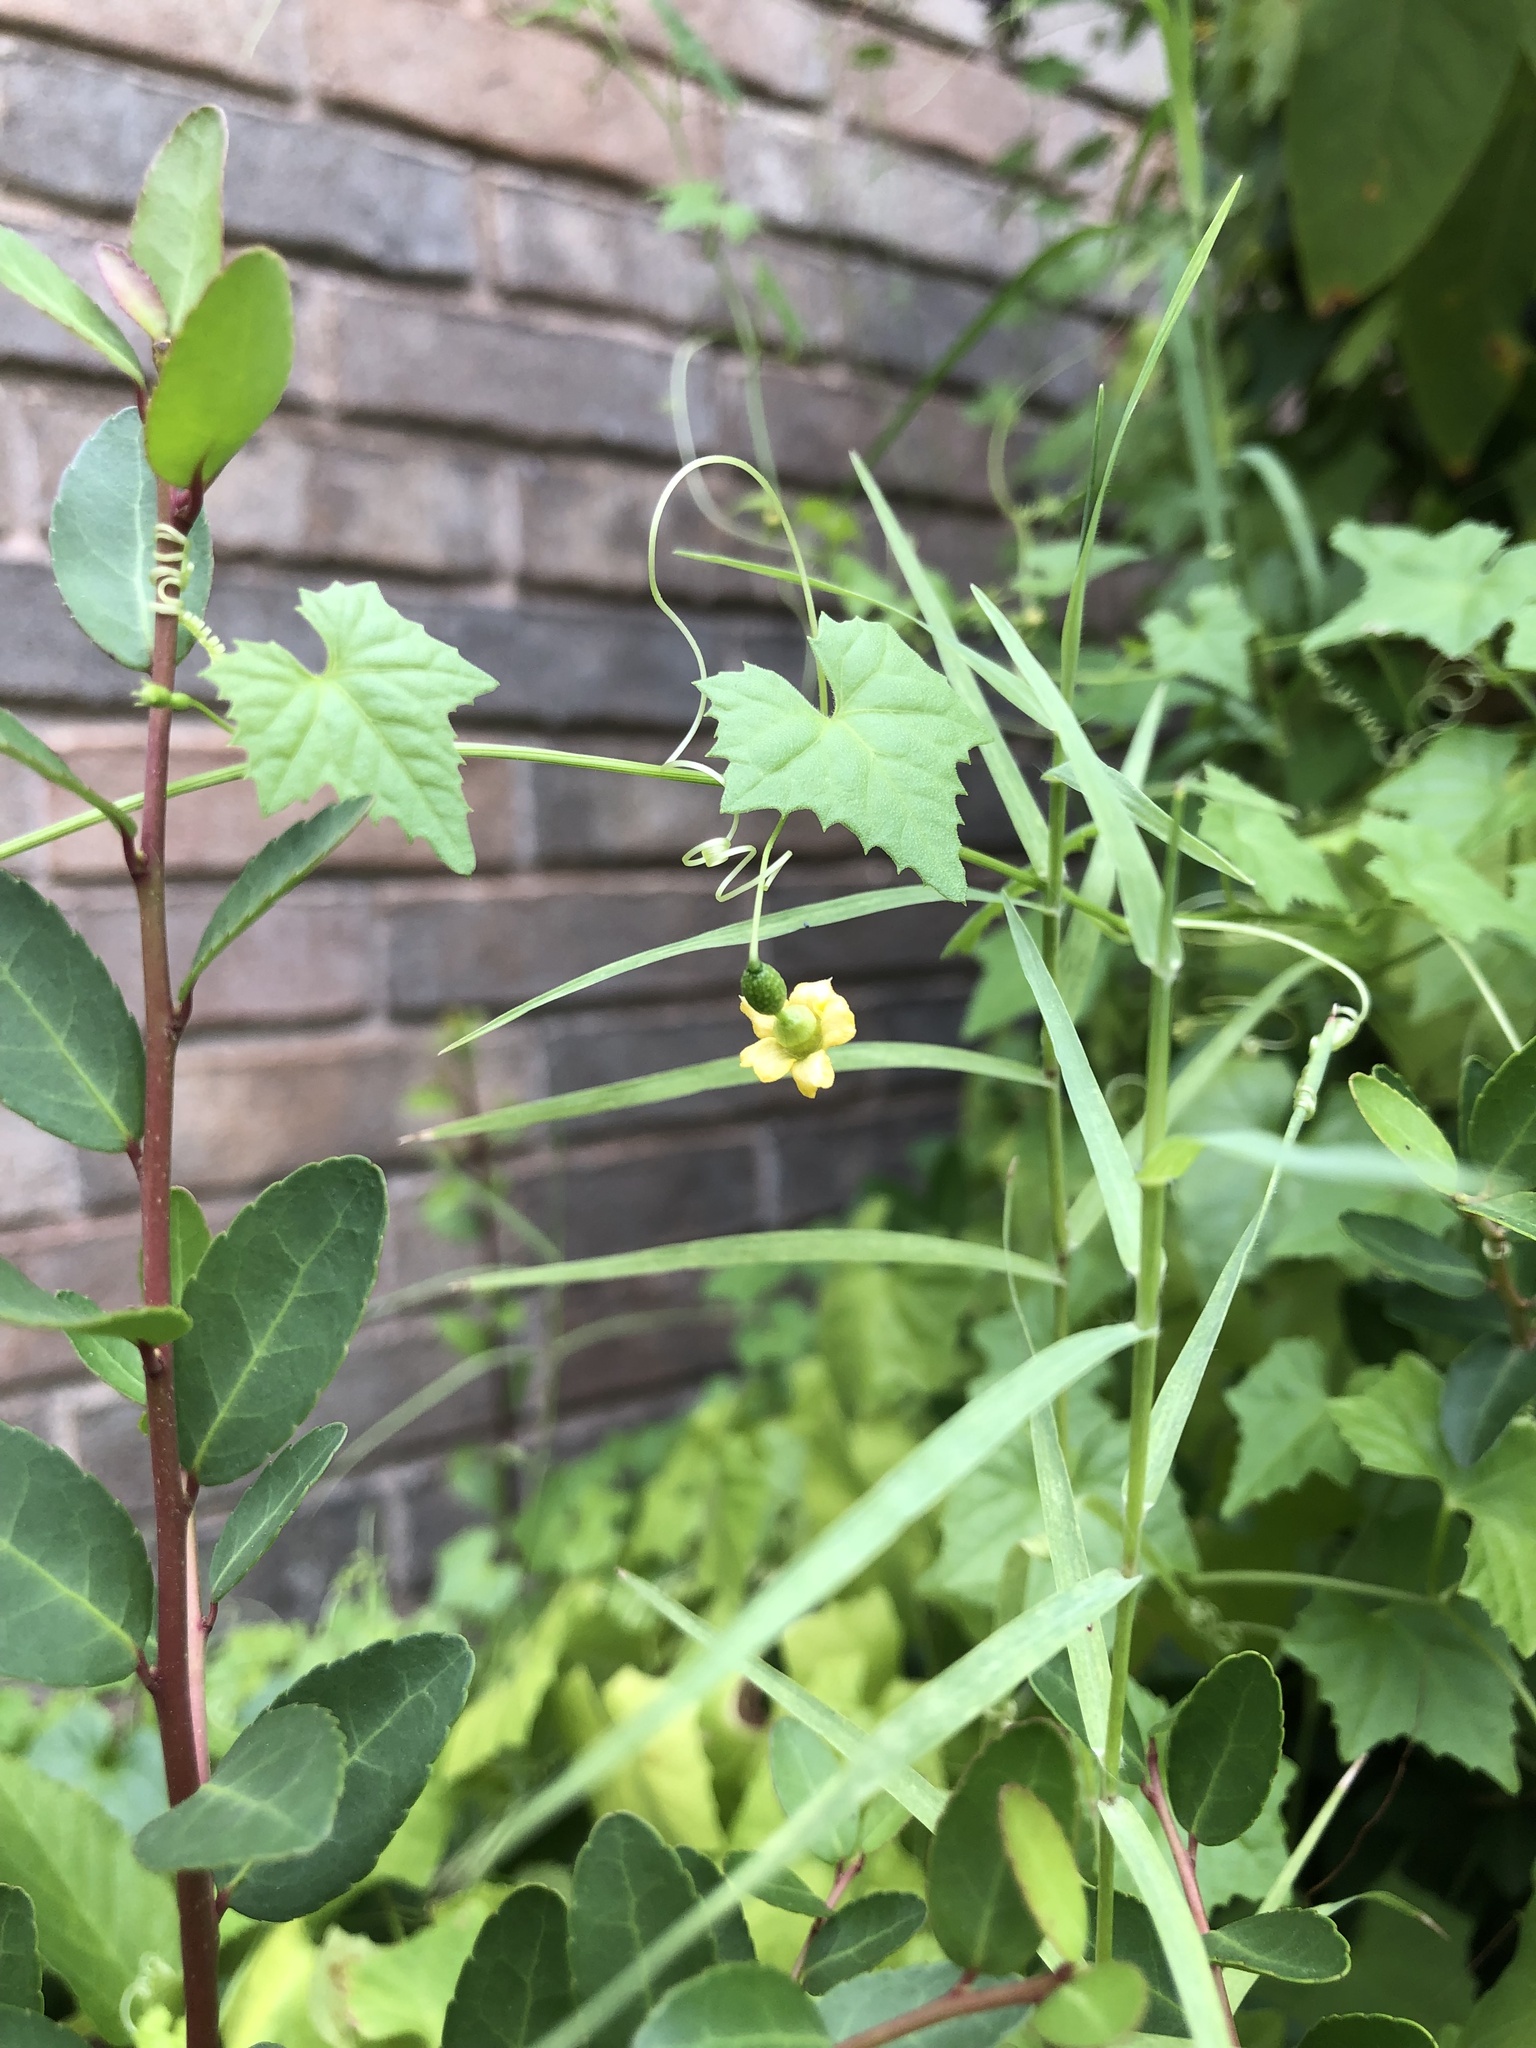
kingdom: Plantae
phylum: Tracheophyta
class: Magnoliopsida
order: Cucurbitales
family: Cucurbitaceae
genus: Melothria
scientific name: Melothria pendula
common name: Creeping-cucumber
